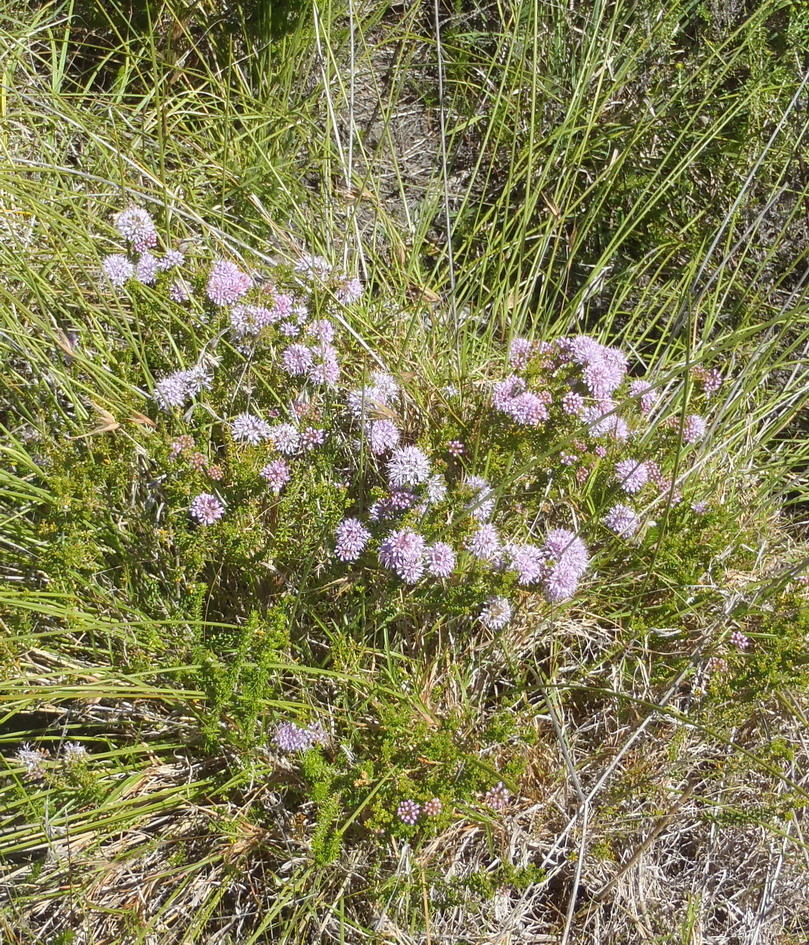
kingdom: Plantae
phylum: Tracheophyta
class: Magnoliopsida
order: Sapindales
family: Rutaceae
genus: Agathosma
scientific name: Agathosma capensis
